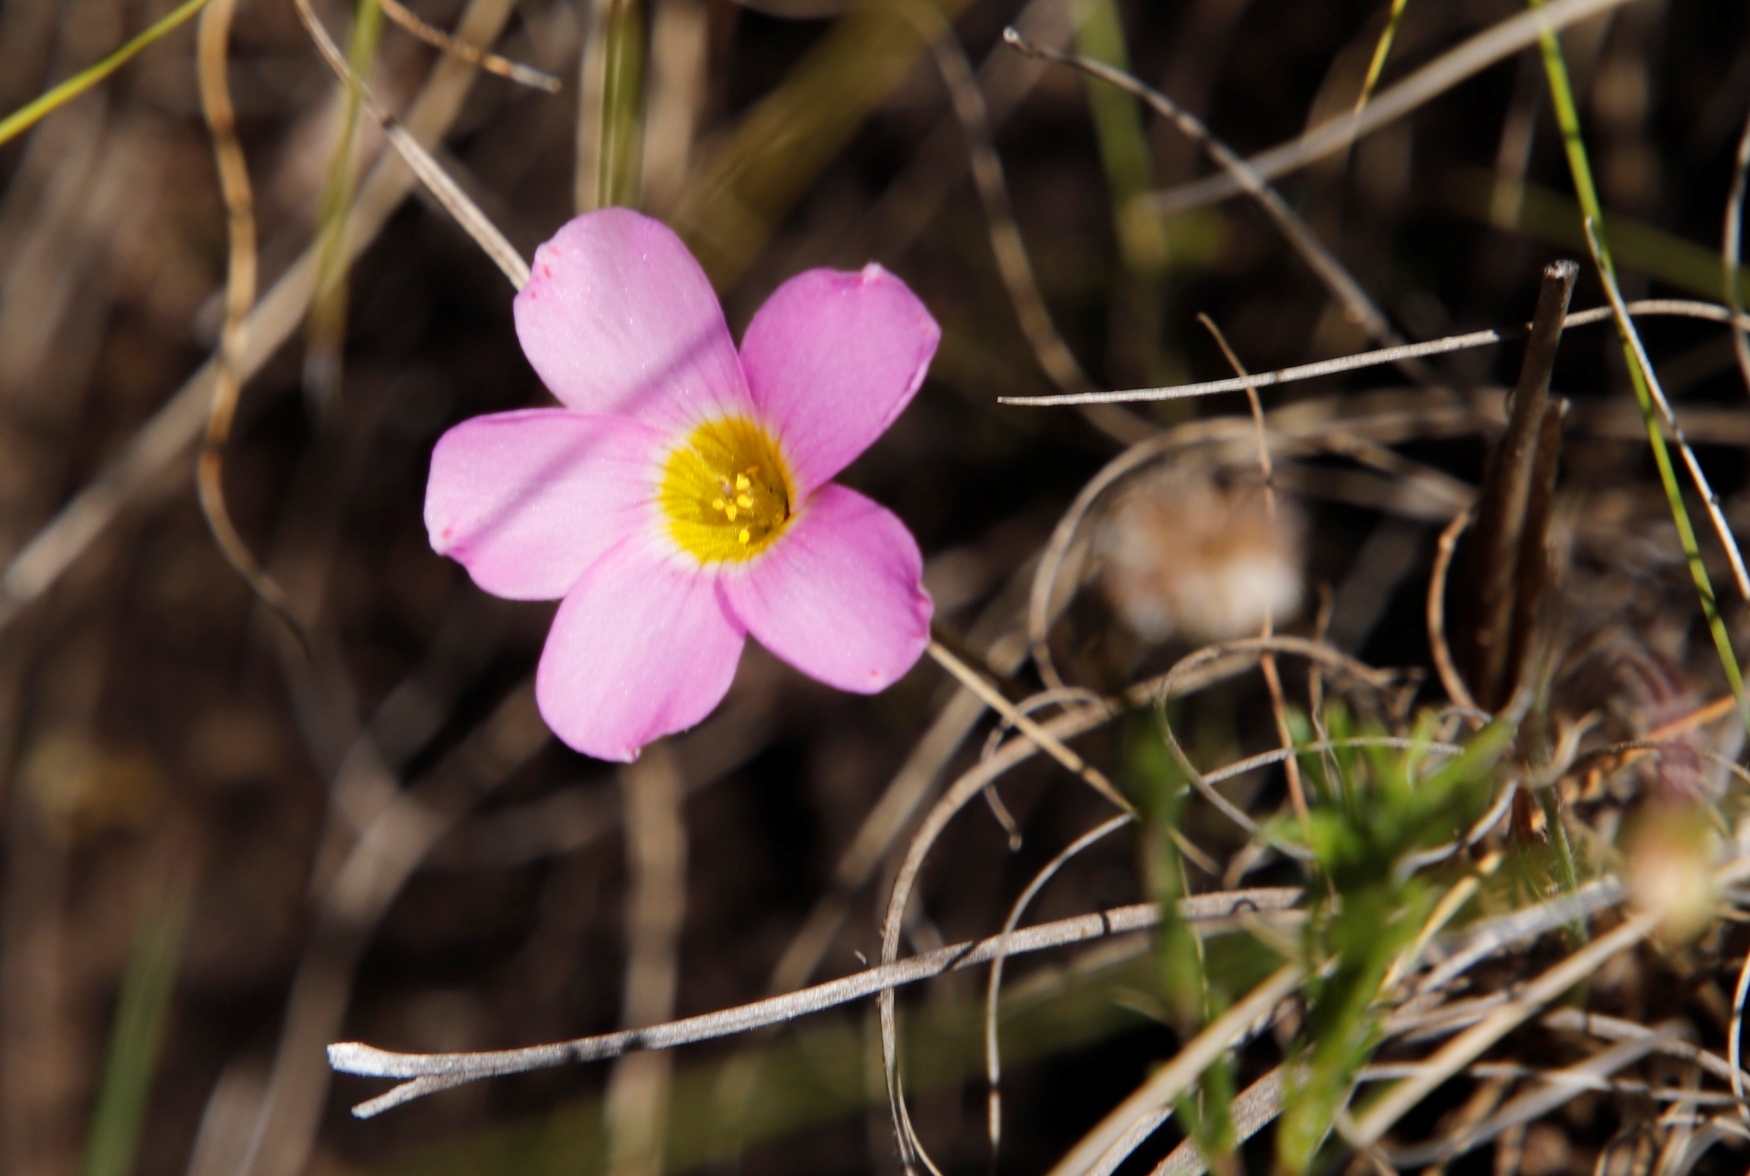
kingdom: Plantae
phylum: Tracheophyta
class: Magnoliopsida
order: Oxalidales
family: Oxalidaceae
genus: Oxalis
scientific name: Oxalis obliquifolia
